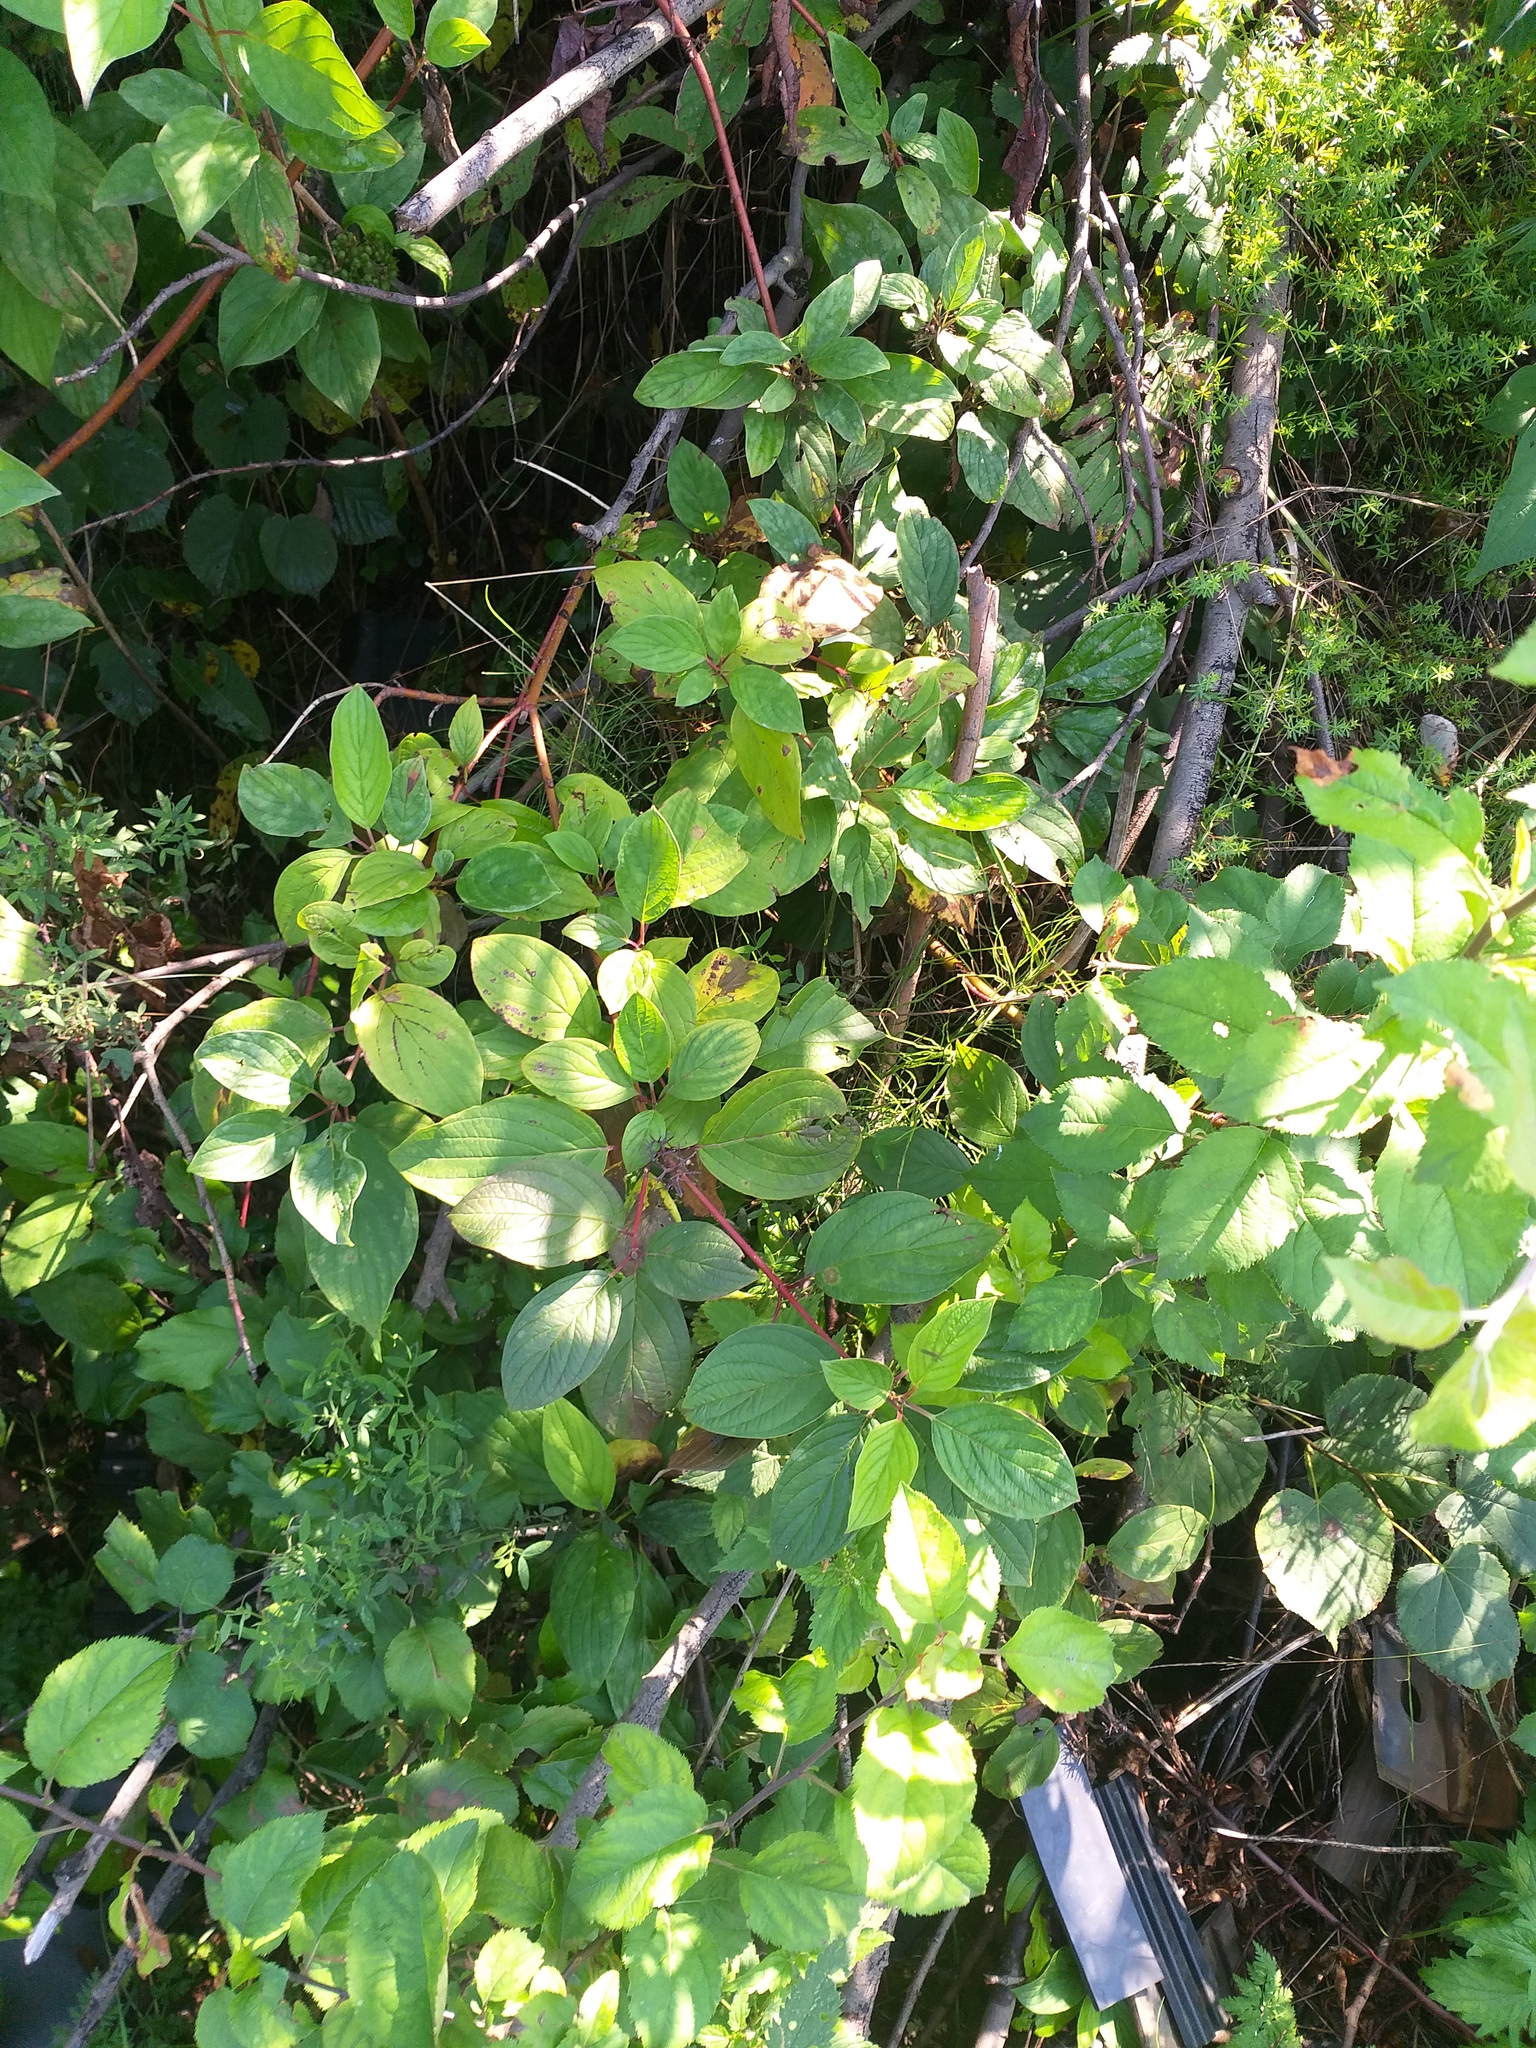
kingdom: Plantae
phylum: Tracheophyta
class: Magnoliopsida
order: Cornales
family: Cornaceae
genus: Cornus
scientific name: Cornus alba
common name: White dogwood
